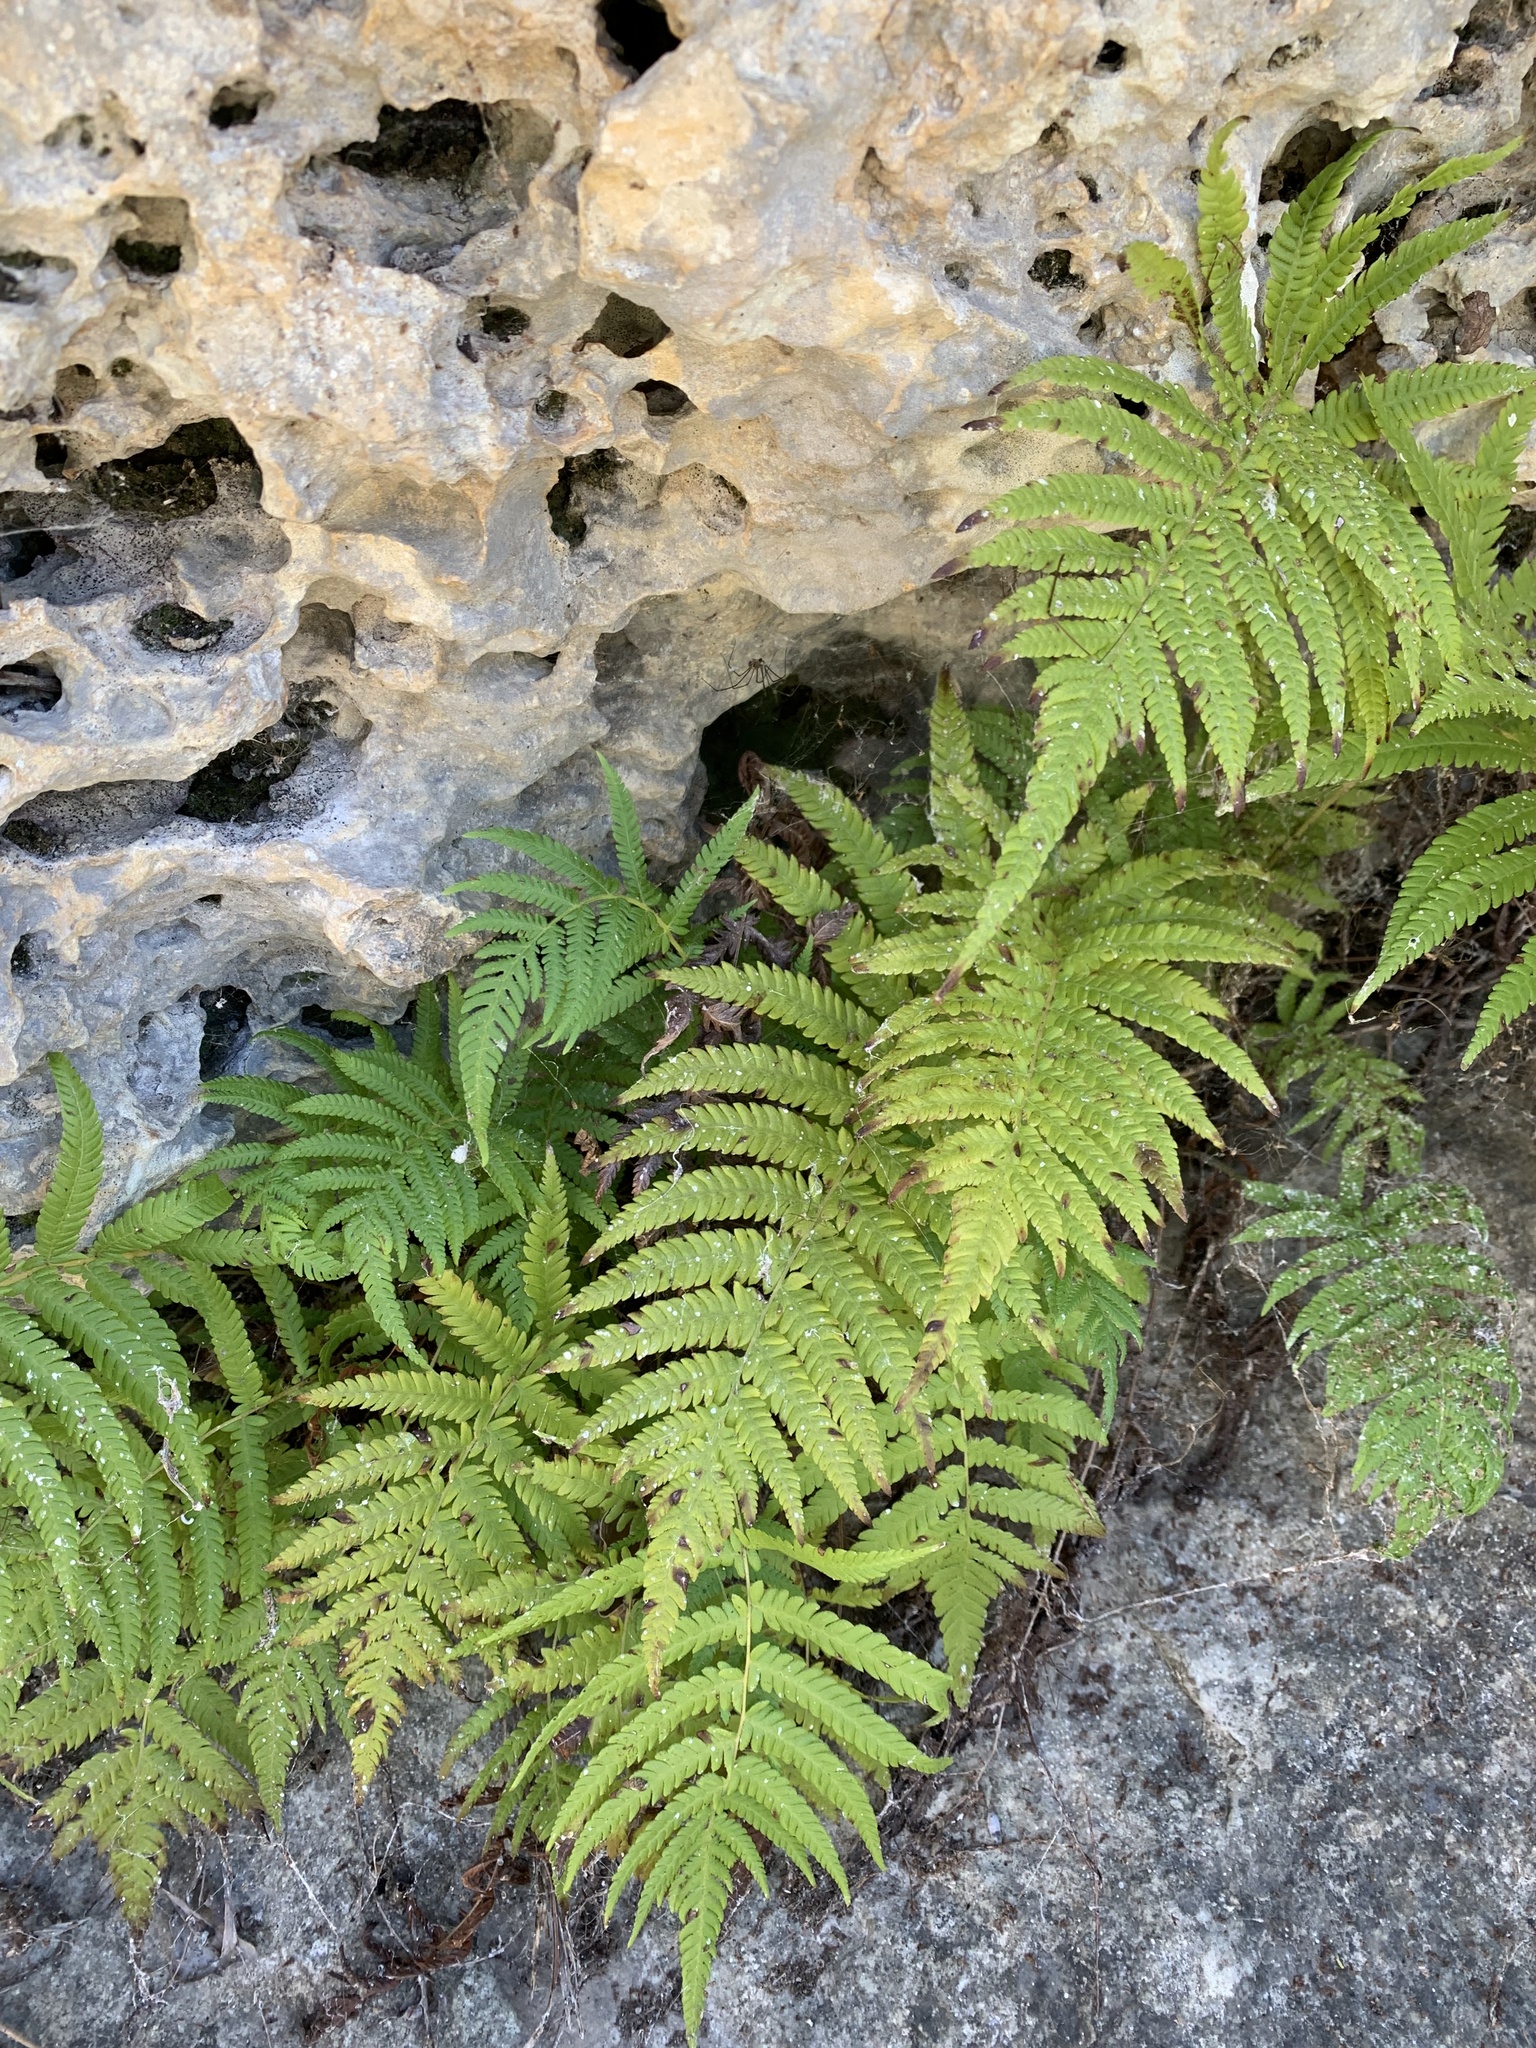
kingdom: Plantae
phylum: Tracheophyta
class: Polypodiopsida
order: Polypodiales
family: Thelypteridaceae
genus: Pelazoneuron
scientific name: Pelazoneuron ovatum
